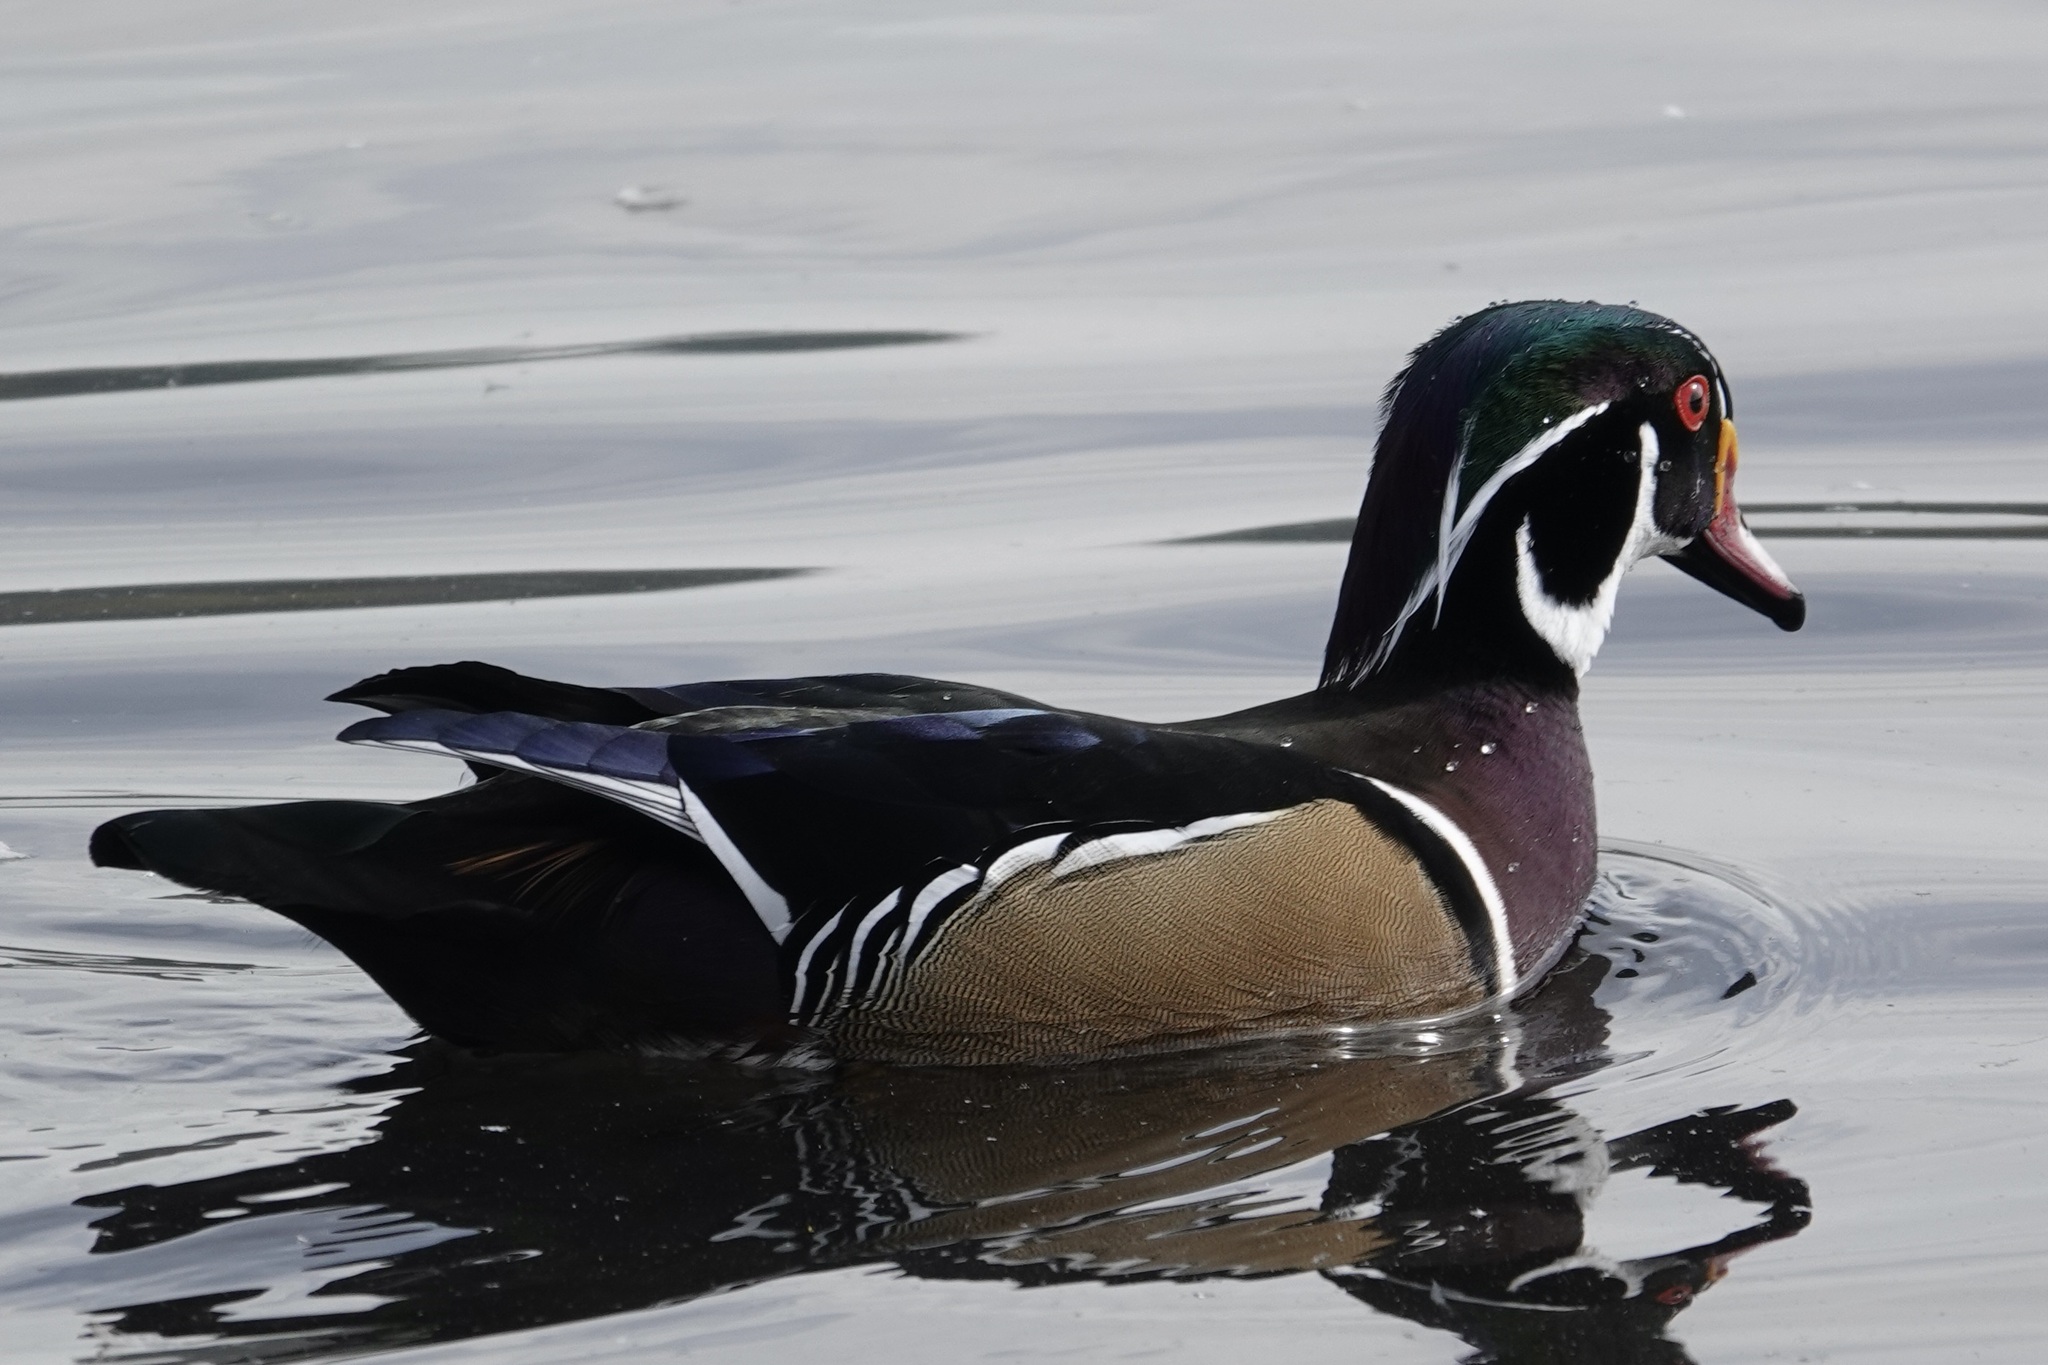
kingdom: Animalia
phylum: Chordata
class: Aves
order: Anseriformes
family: Anatidae
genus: Aix
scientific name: Aix sponsa
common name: Wood duck
